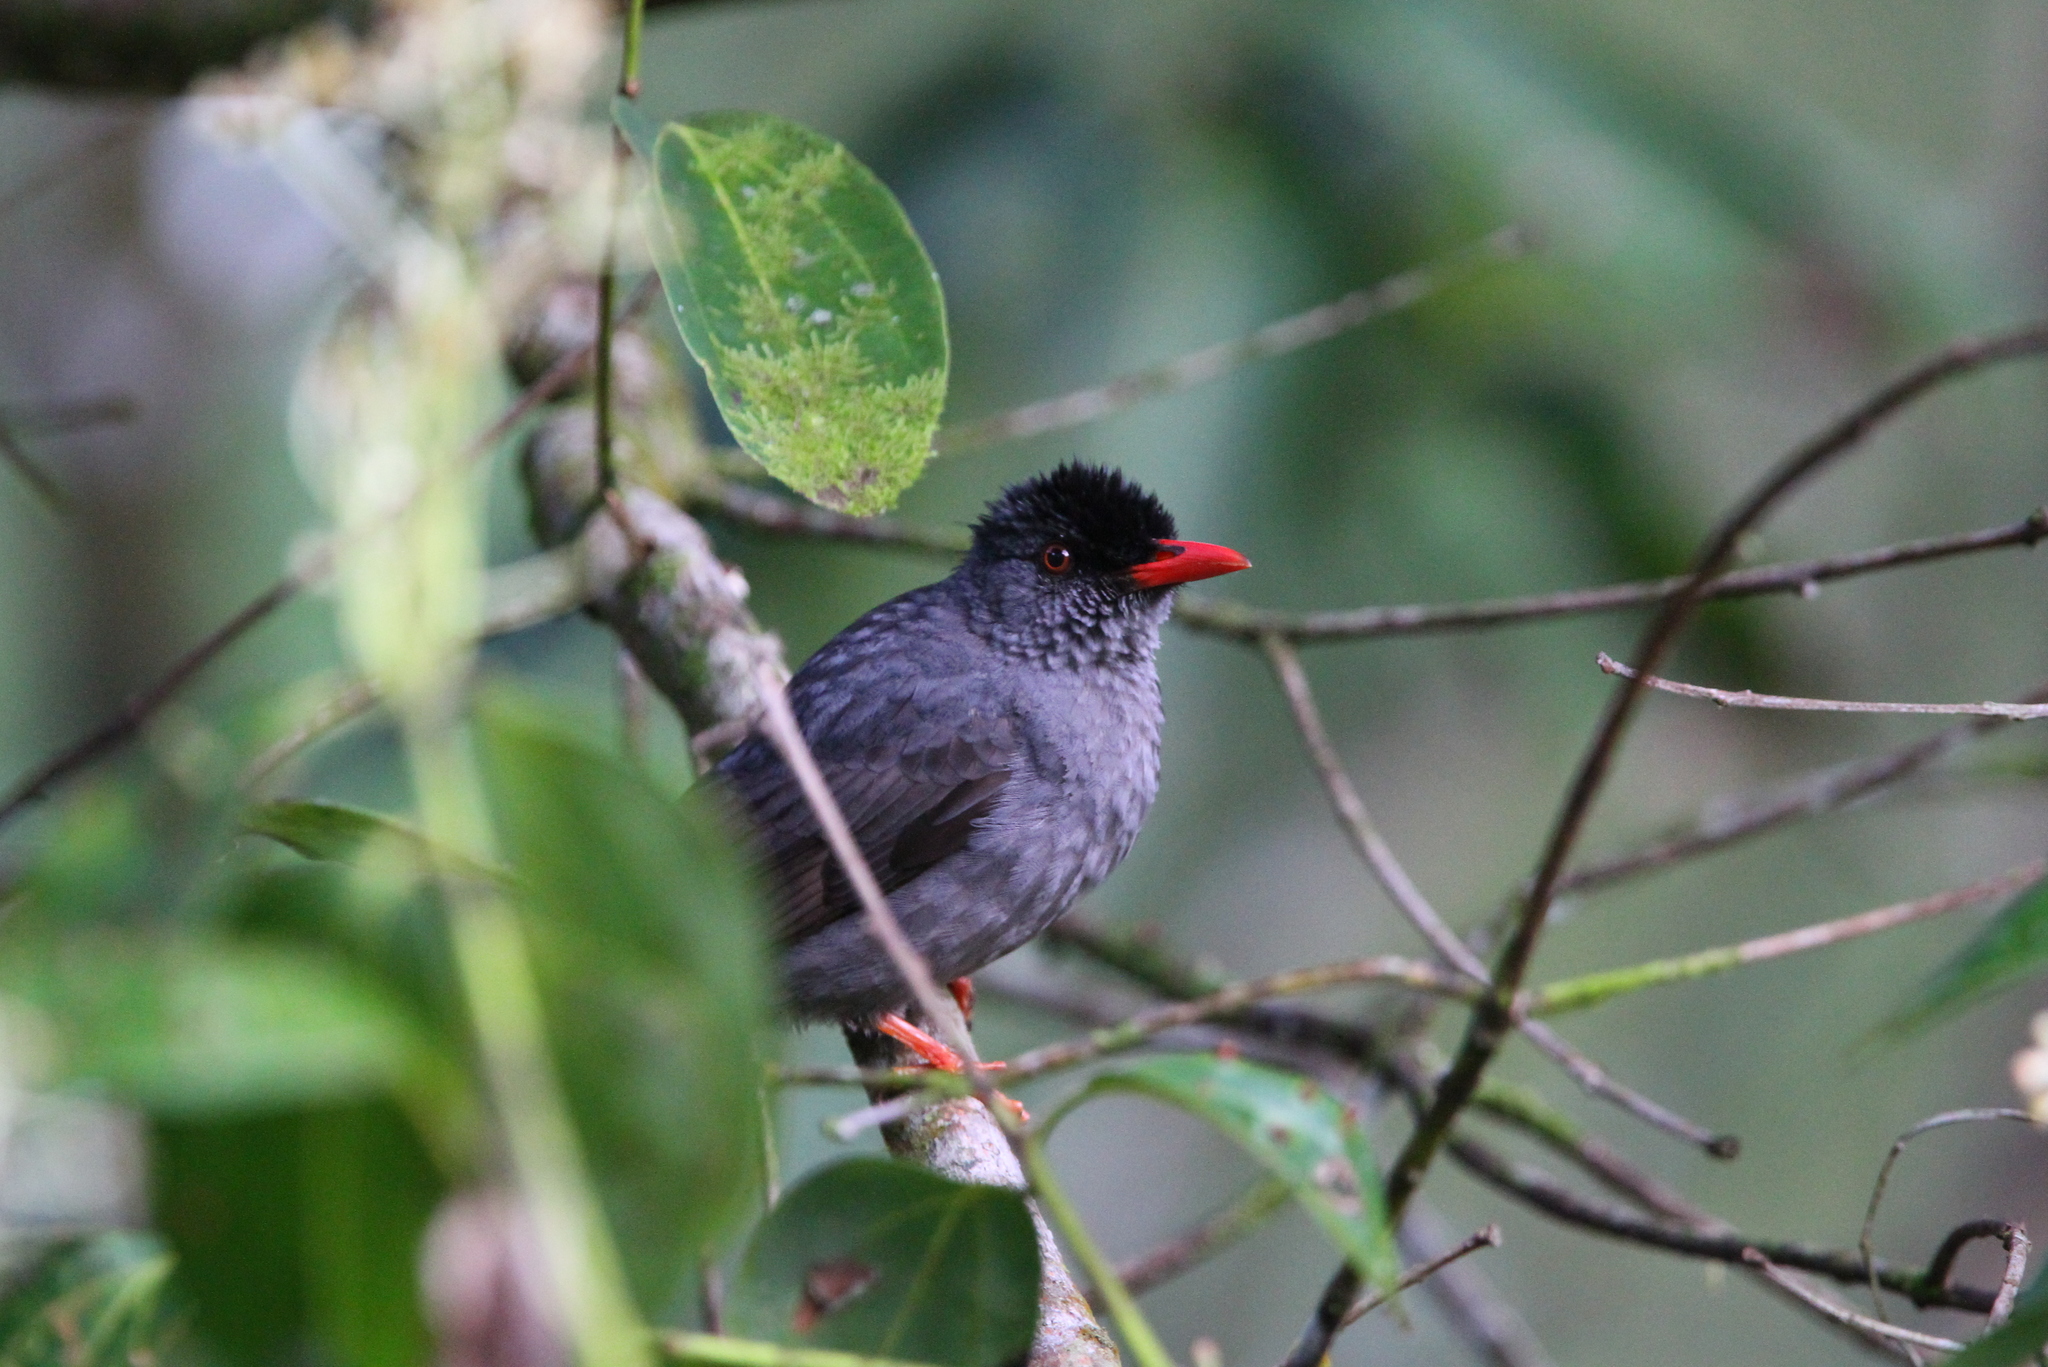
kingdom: Animalia
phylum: Chordata
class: Aves
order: Passeriformes
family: Pycnonotidae
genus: Hypsipetes
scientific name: Hypsipetes ganeesa
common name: Square-tailed bulbul
